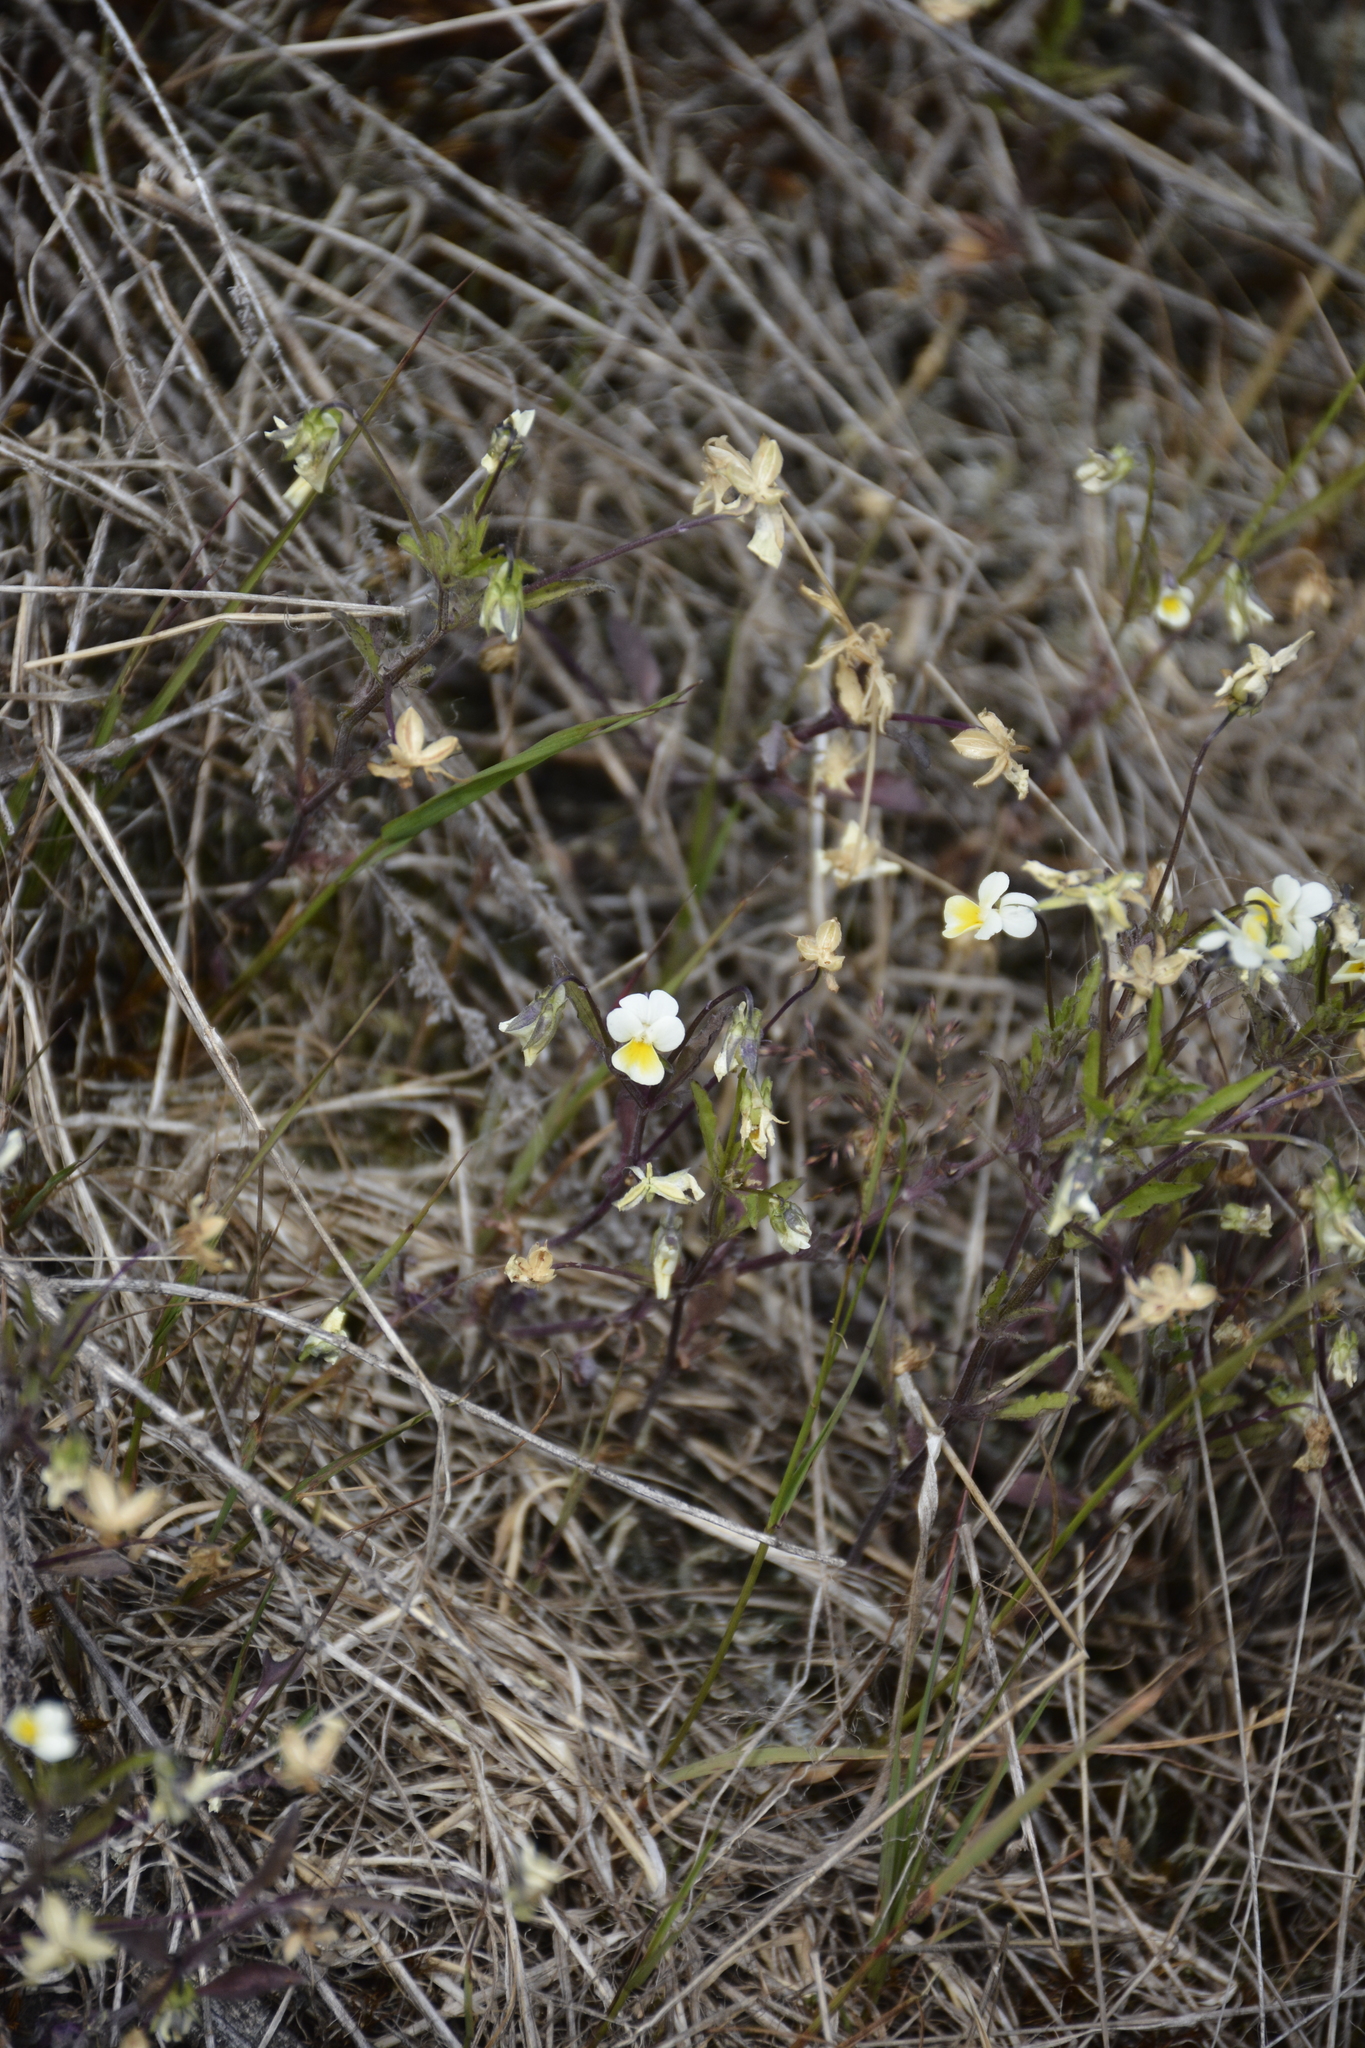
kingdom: Plantae
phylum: Tracheophyta
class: Magnoliopsida
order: Malpighiales
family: Violaceae
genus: Viola
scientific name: Viola arvensis
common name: Field pansy
